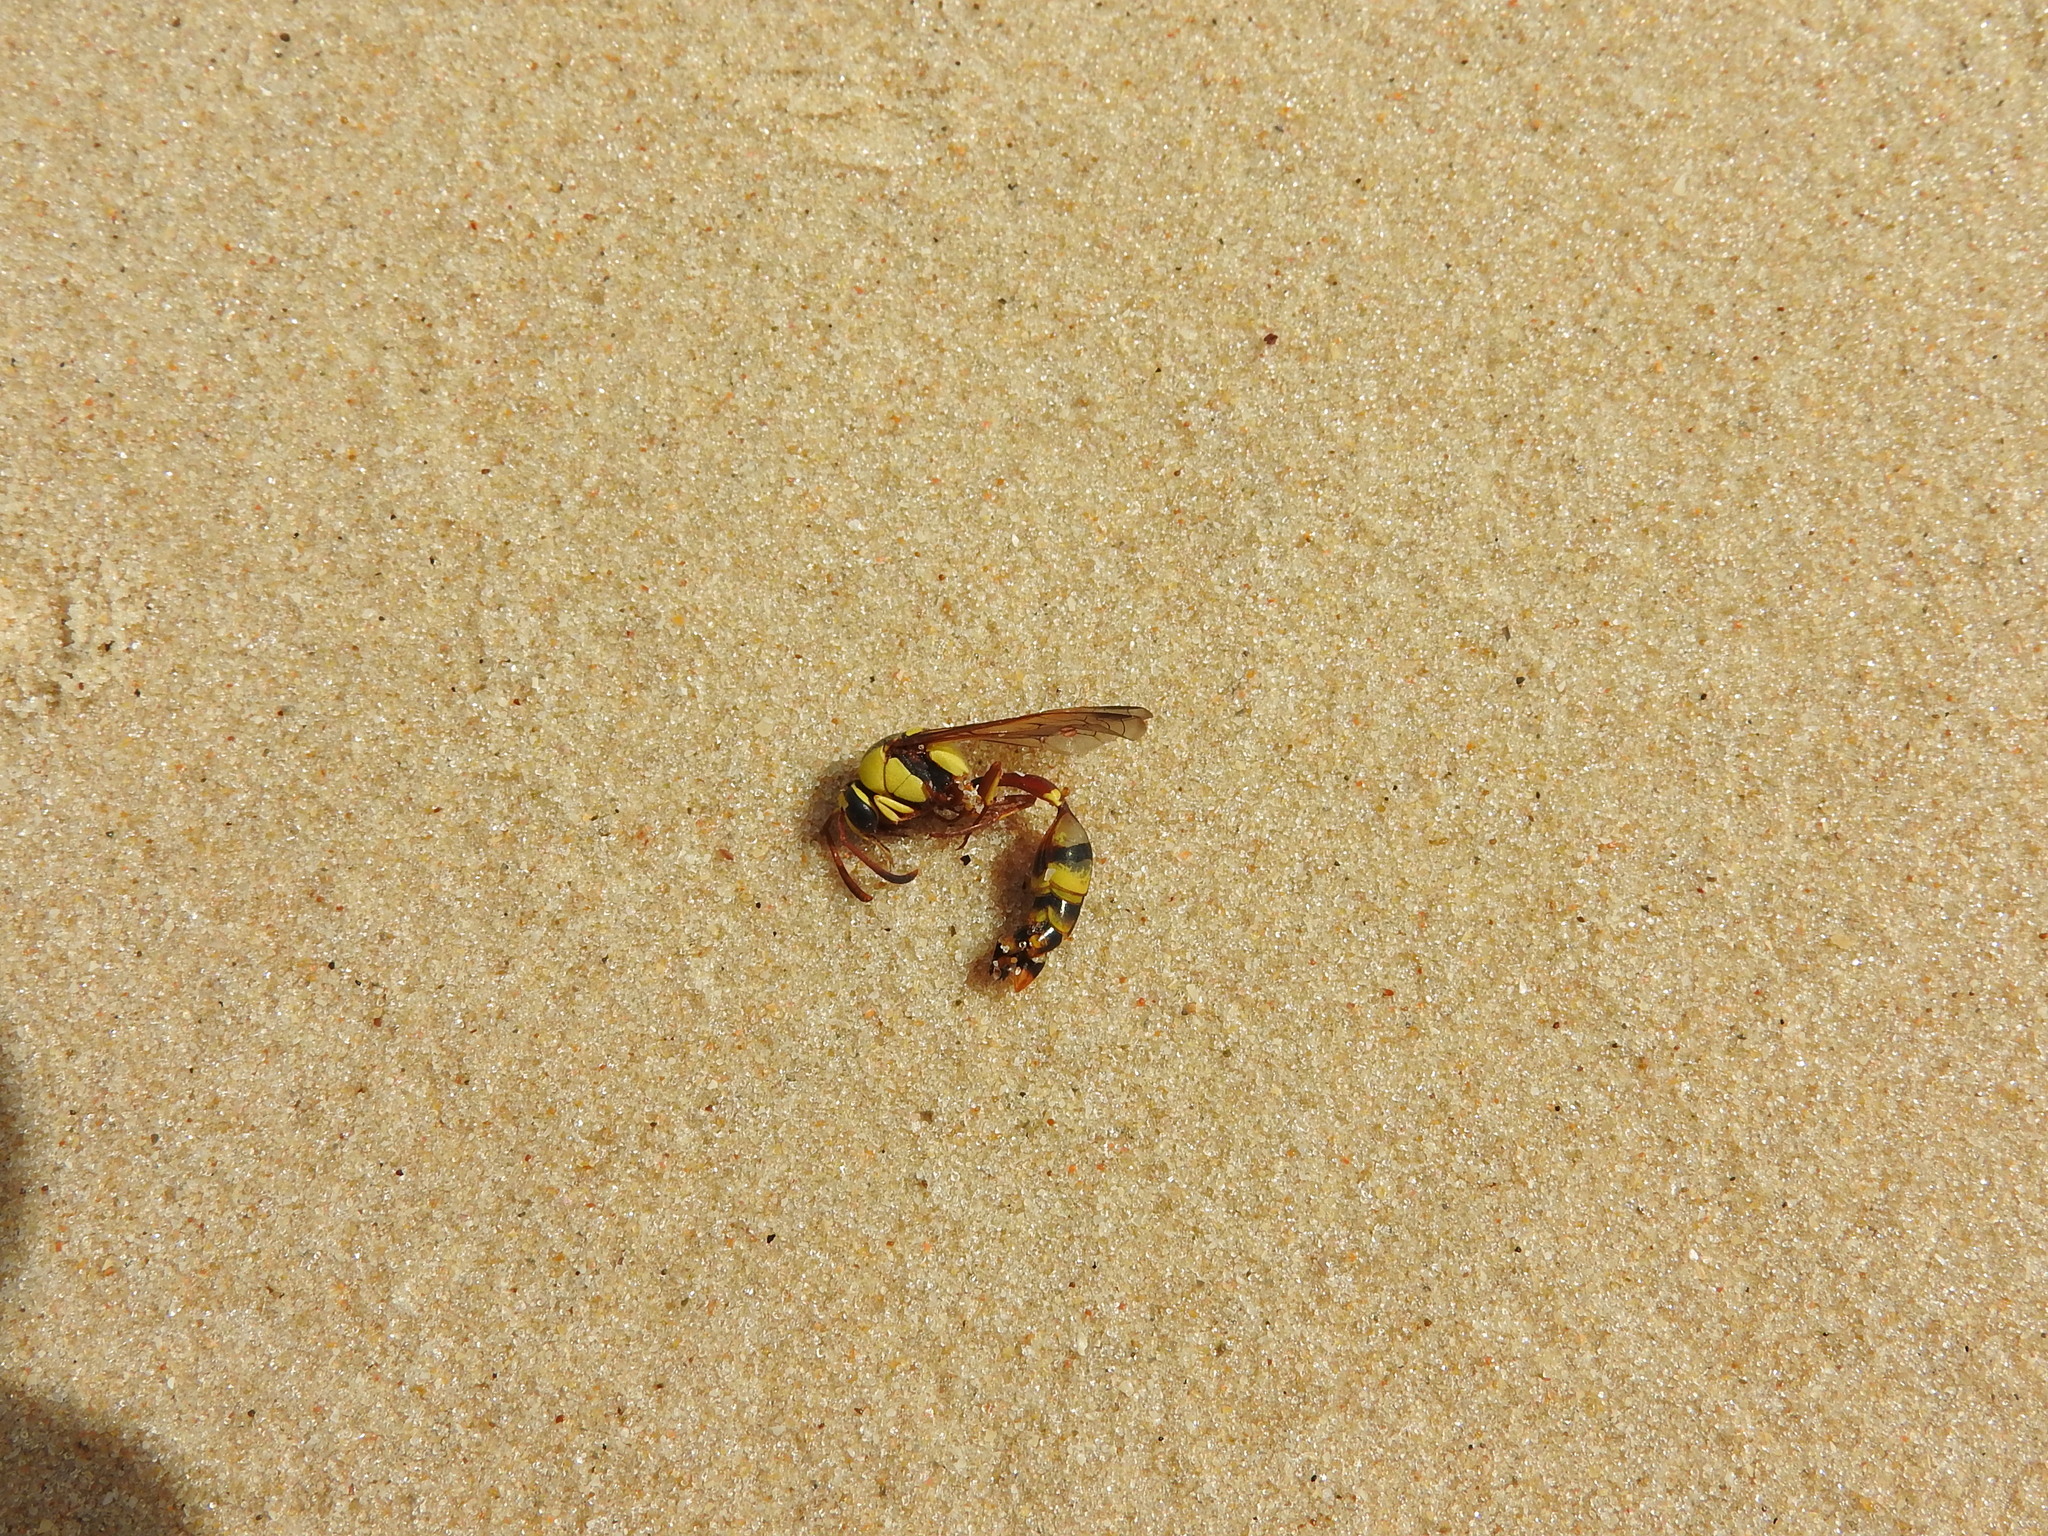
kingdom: Animalia
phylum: Arthropoda
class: Insecta
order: Hymenoptera
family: Eumenidae
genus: Delta
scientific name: Delta lepeleterii
